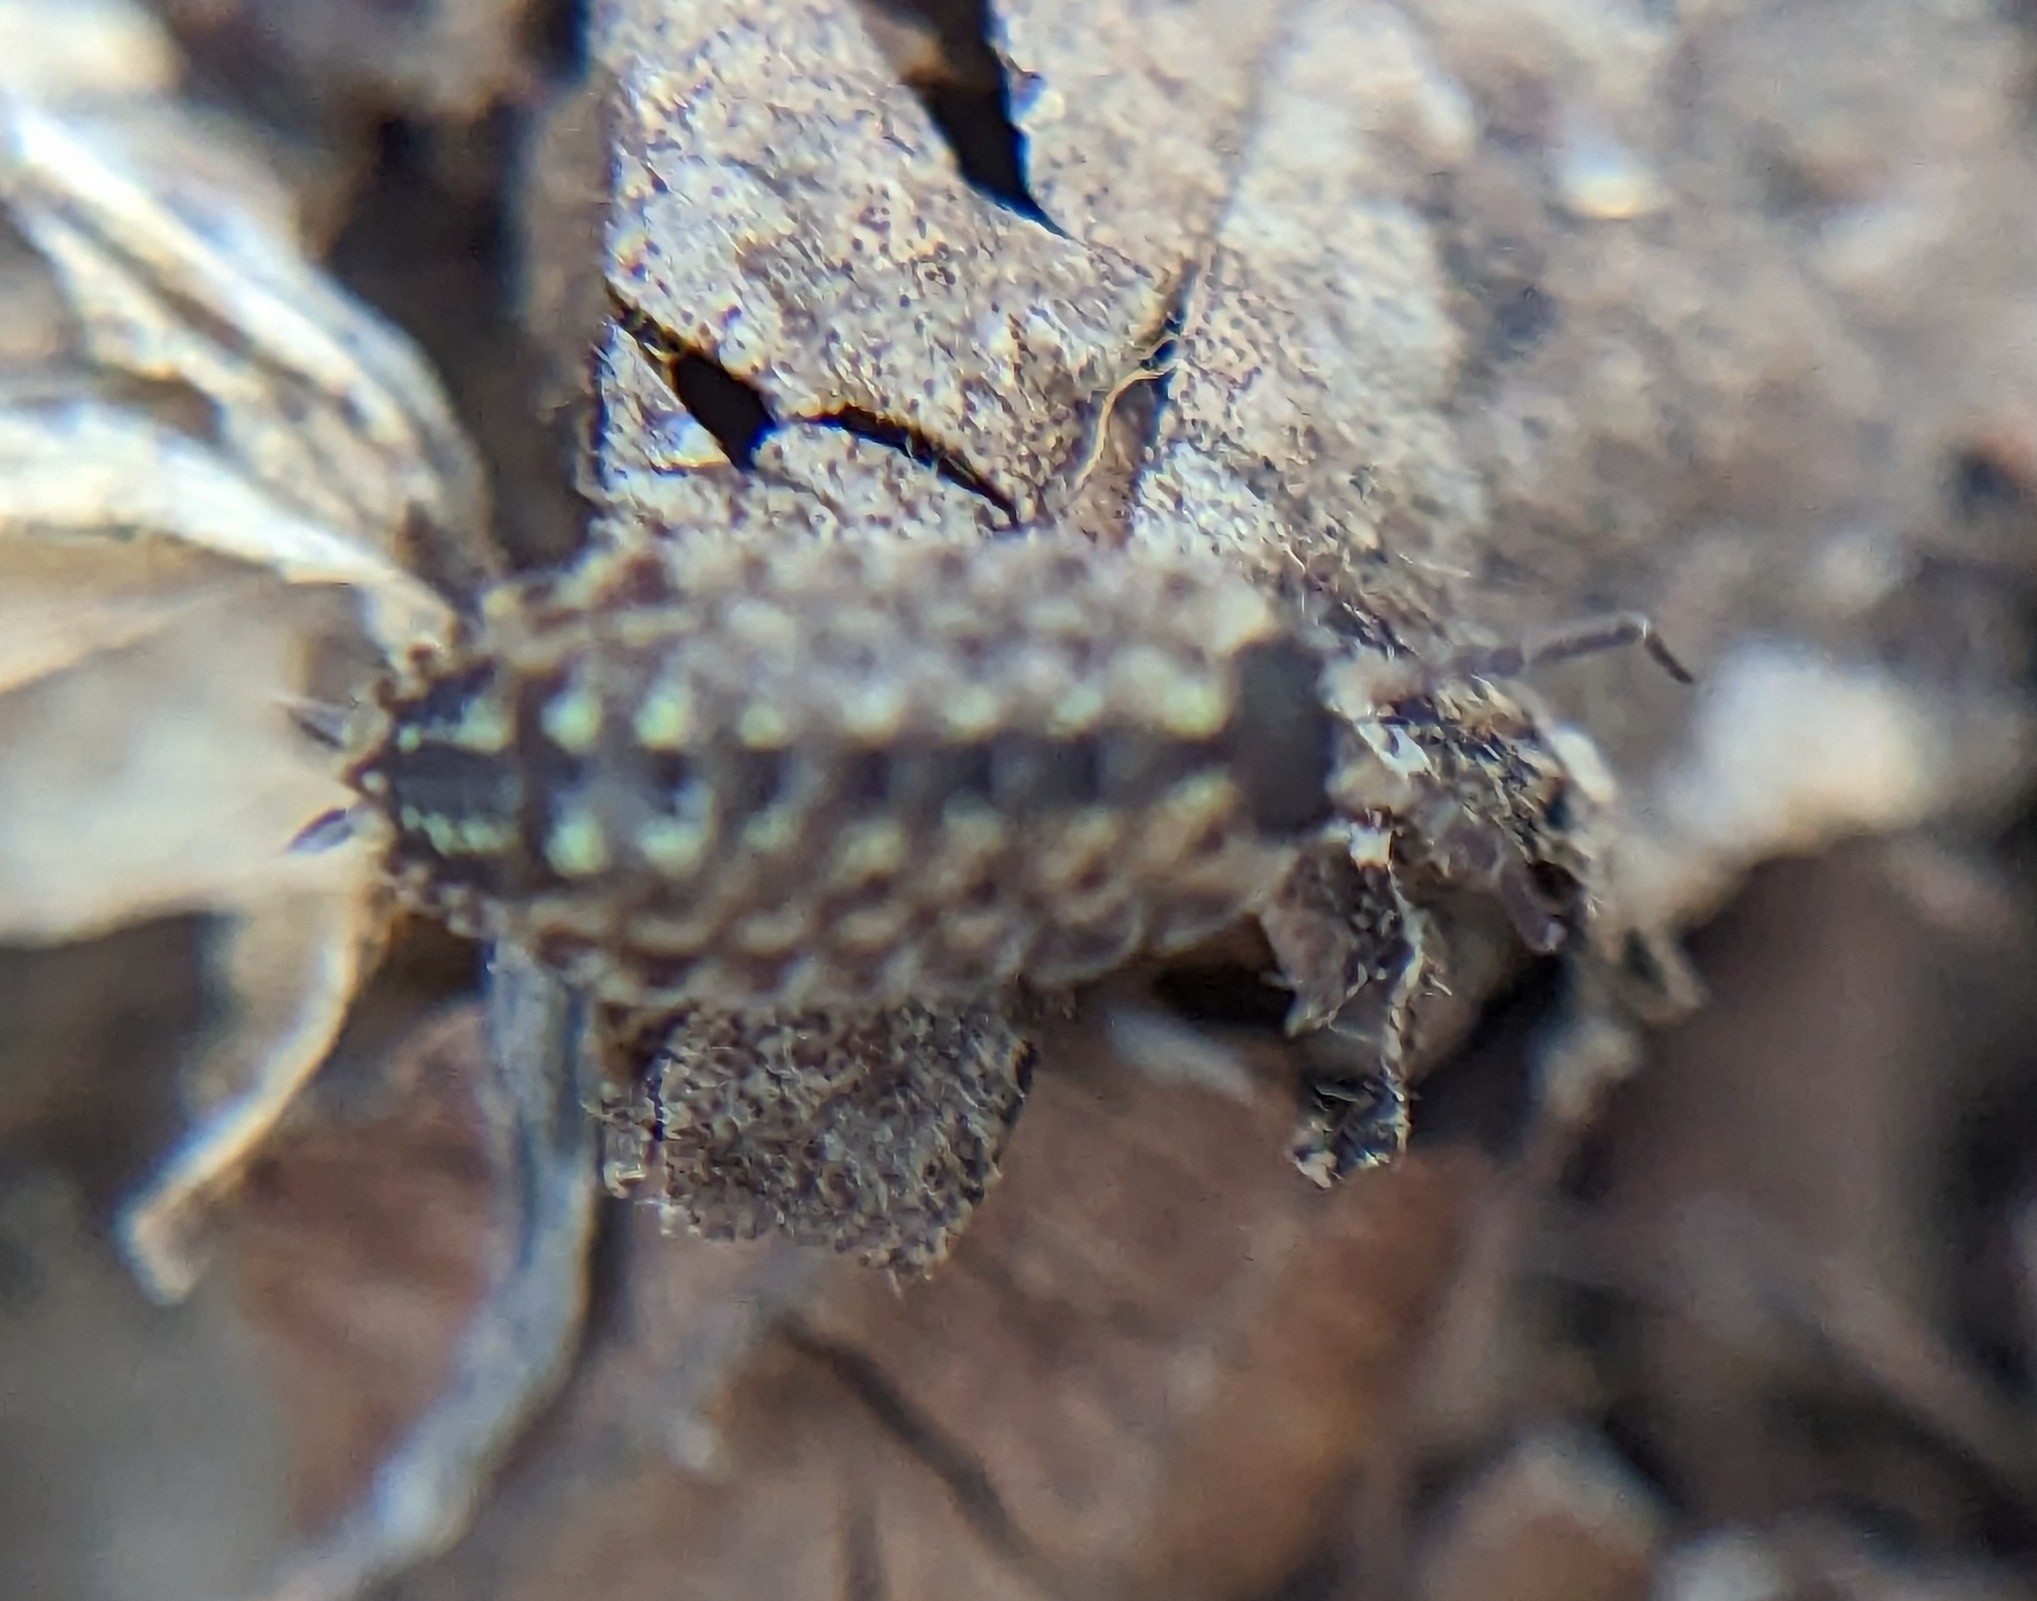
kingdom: Animalia
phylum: Arthropoda
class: Malacostraca
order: Isopoda
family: Porcellionidae
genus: Porcellio
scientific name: Porcellio spinicornis
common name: Painted woodlouse
